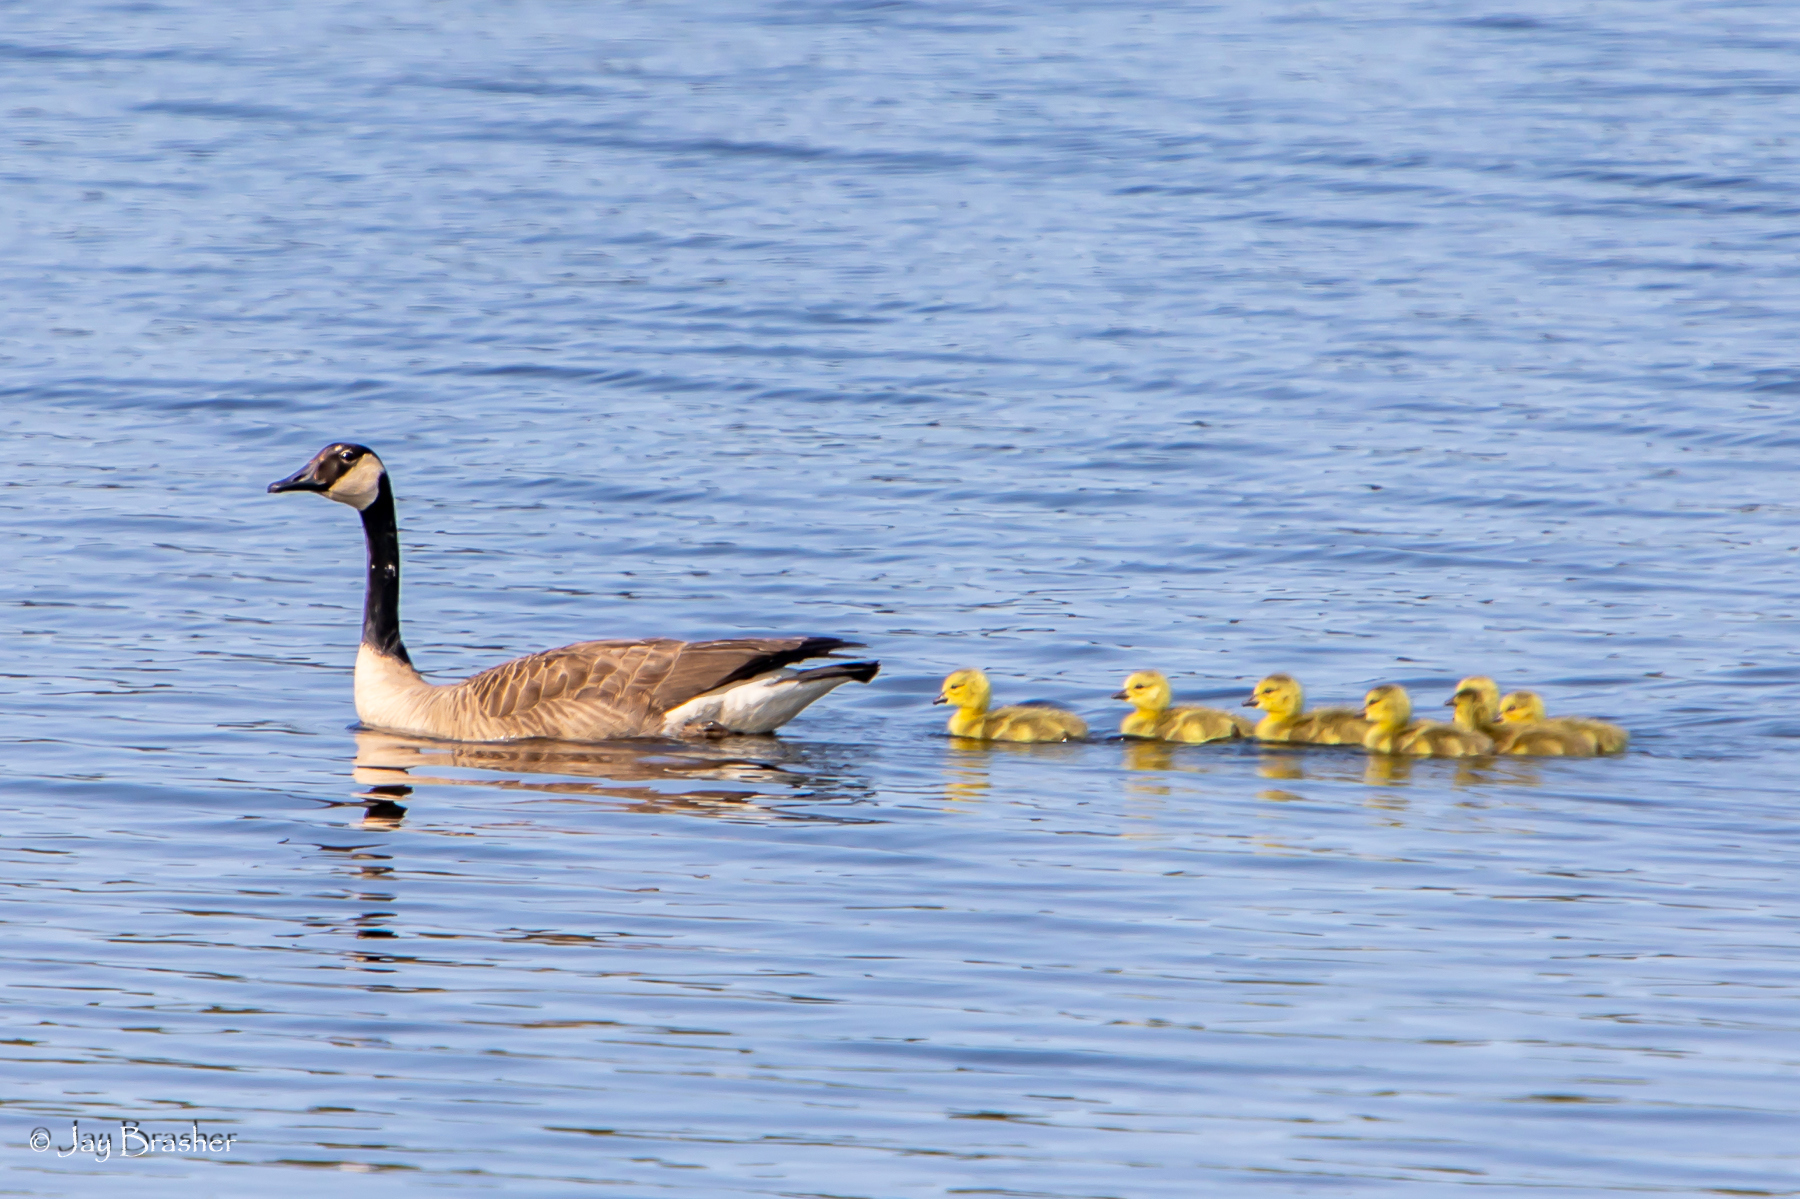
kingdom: Animalia
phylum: Chordata
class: Aves
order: Anseriformes
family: Anatidae
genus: Branta
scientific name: Branta canadensis
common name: Canada goose
